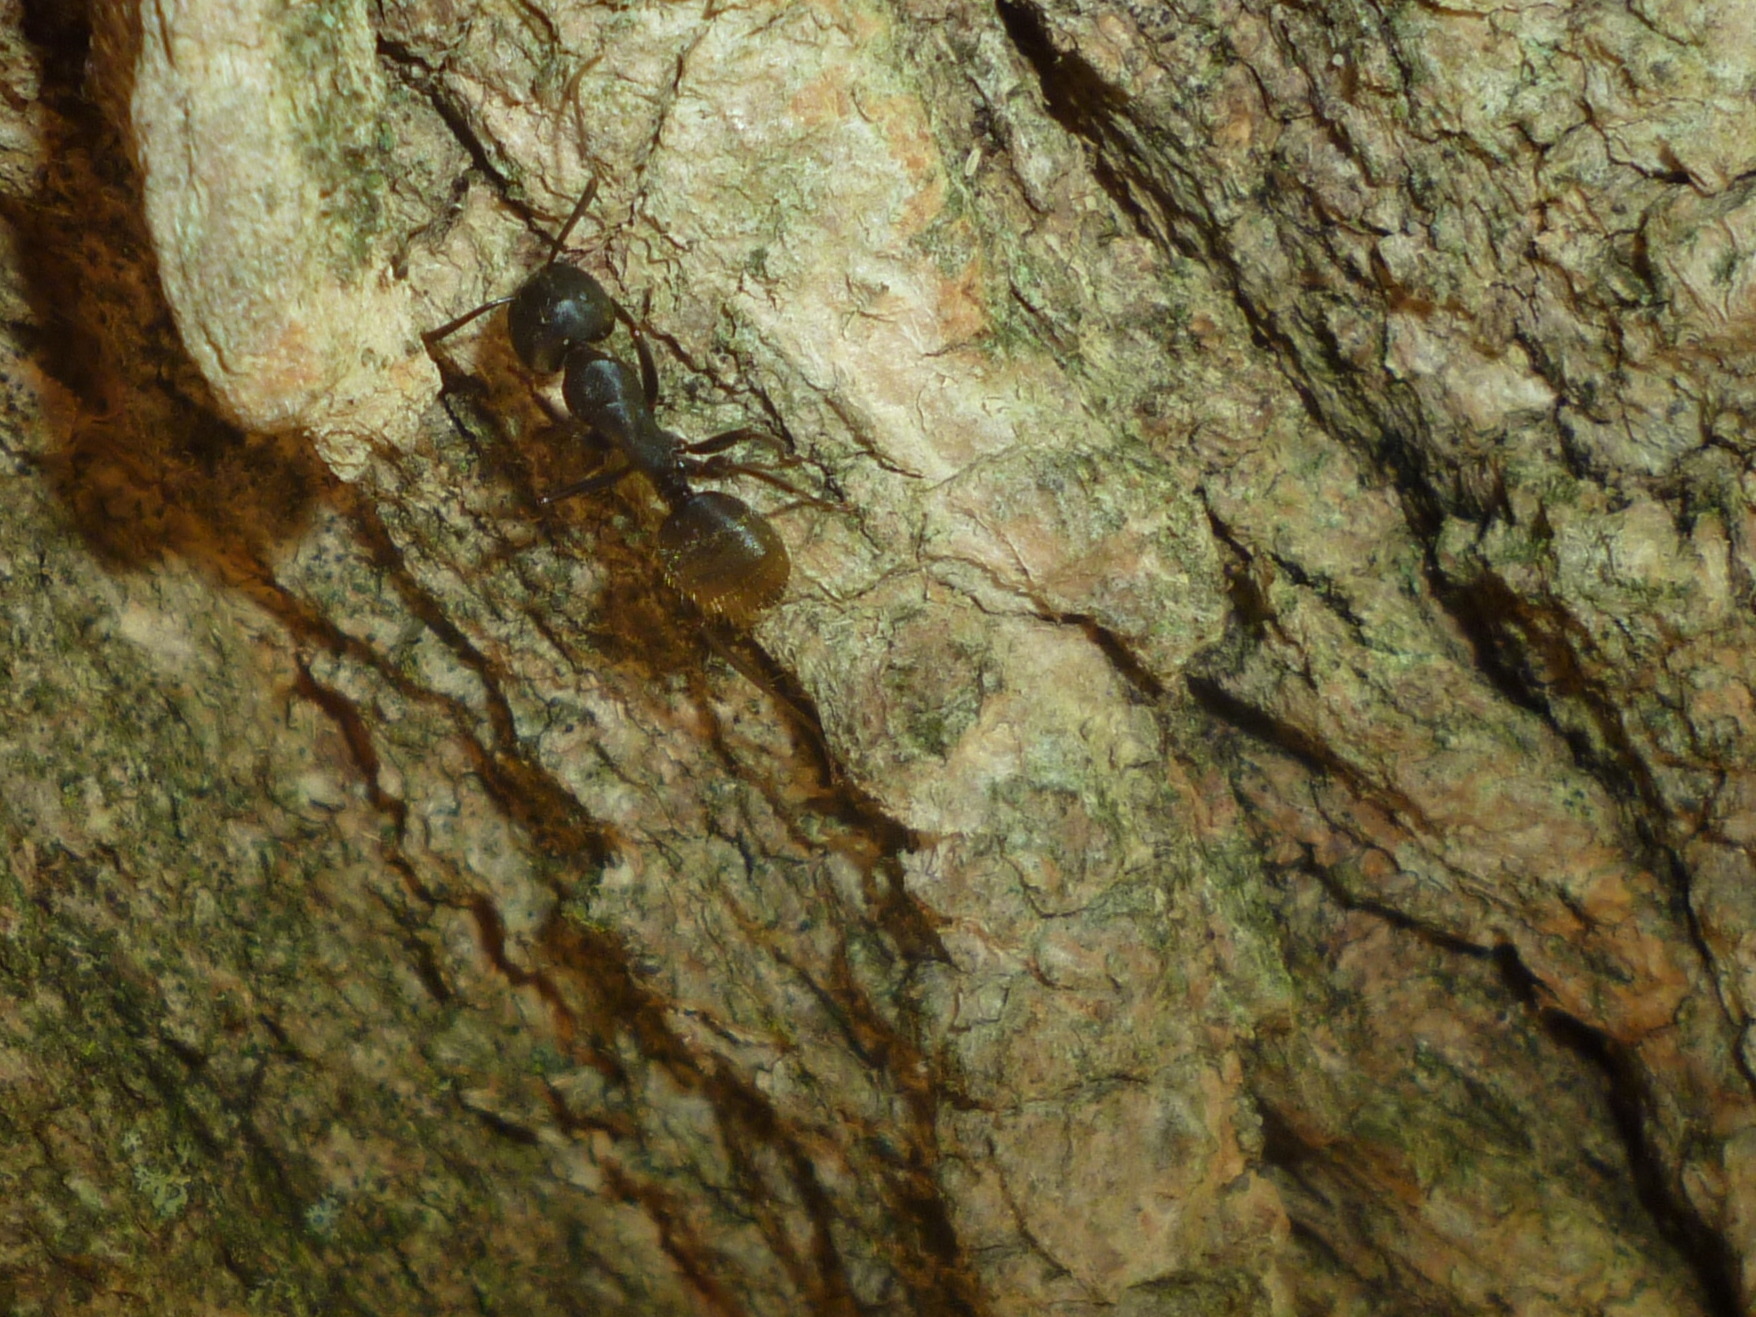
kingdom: Animalia
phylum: Arthropoda
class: Insecta
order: Hymenoptera
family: Formicidae
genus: Camponotus
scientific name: Camponotus pennsylvanicus
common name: Black carpenter ant
